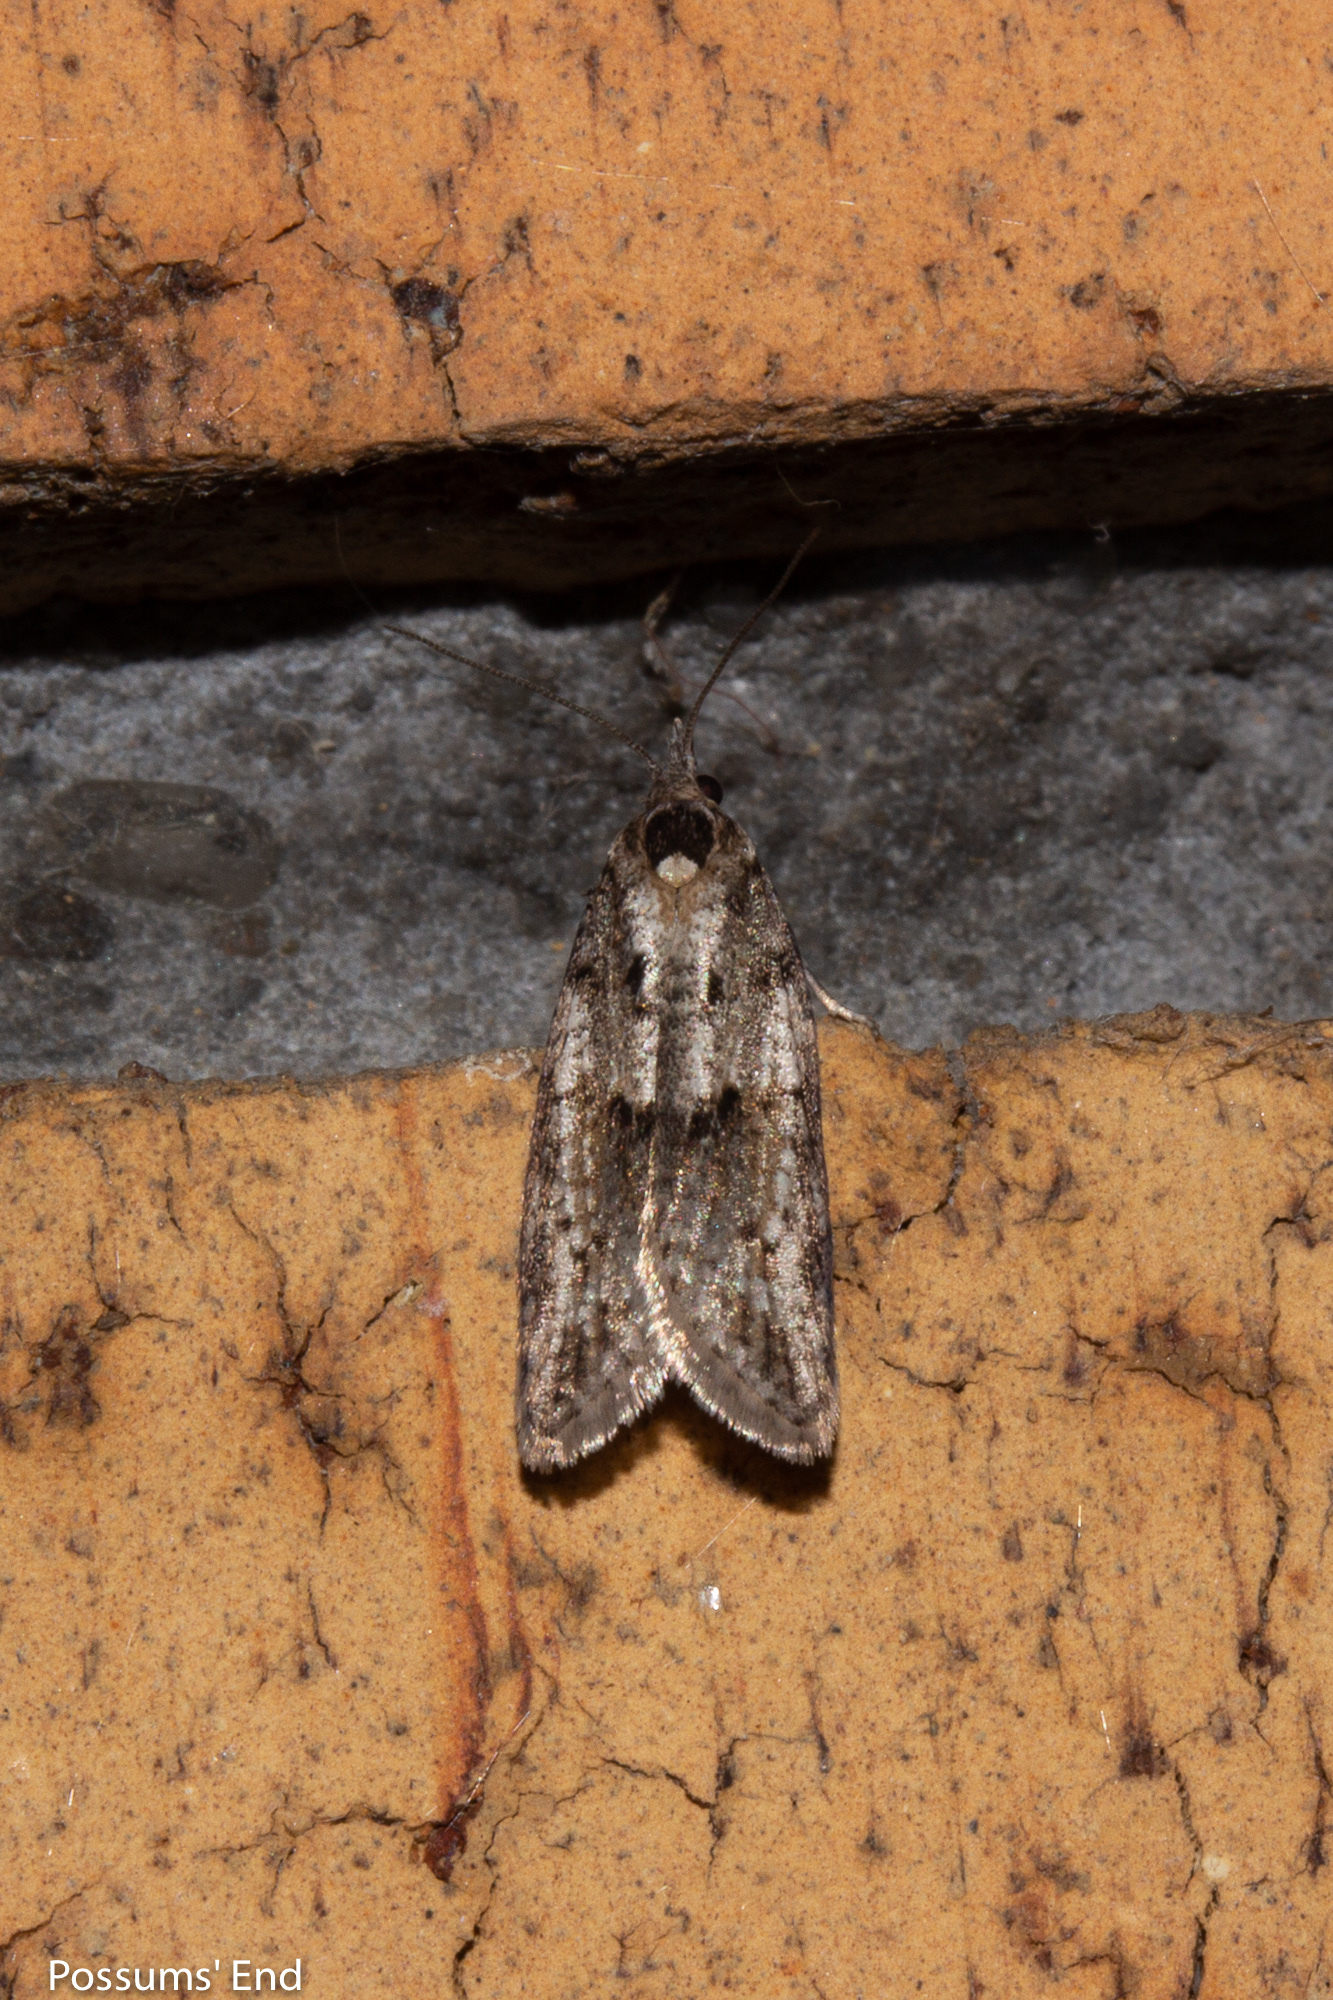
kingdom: Animalia
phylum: Arthropoda
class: Insecta
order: Lepidoptera
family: Tortricidae
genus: Prothelymna
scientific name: Prothelymna antiquana
